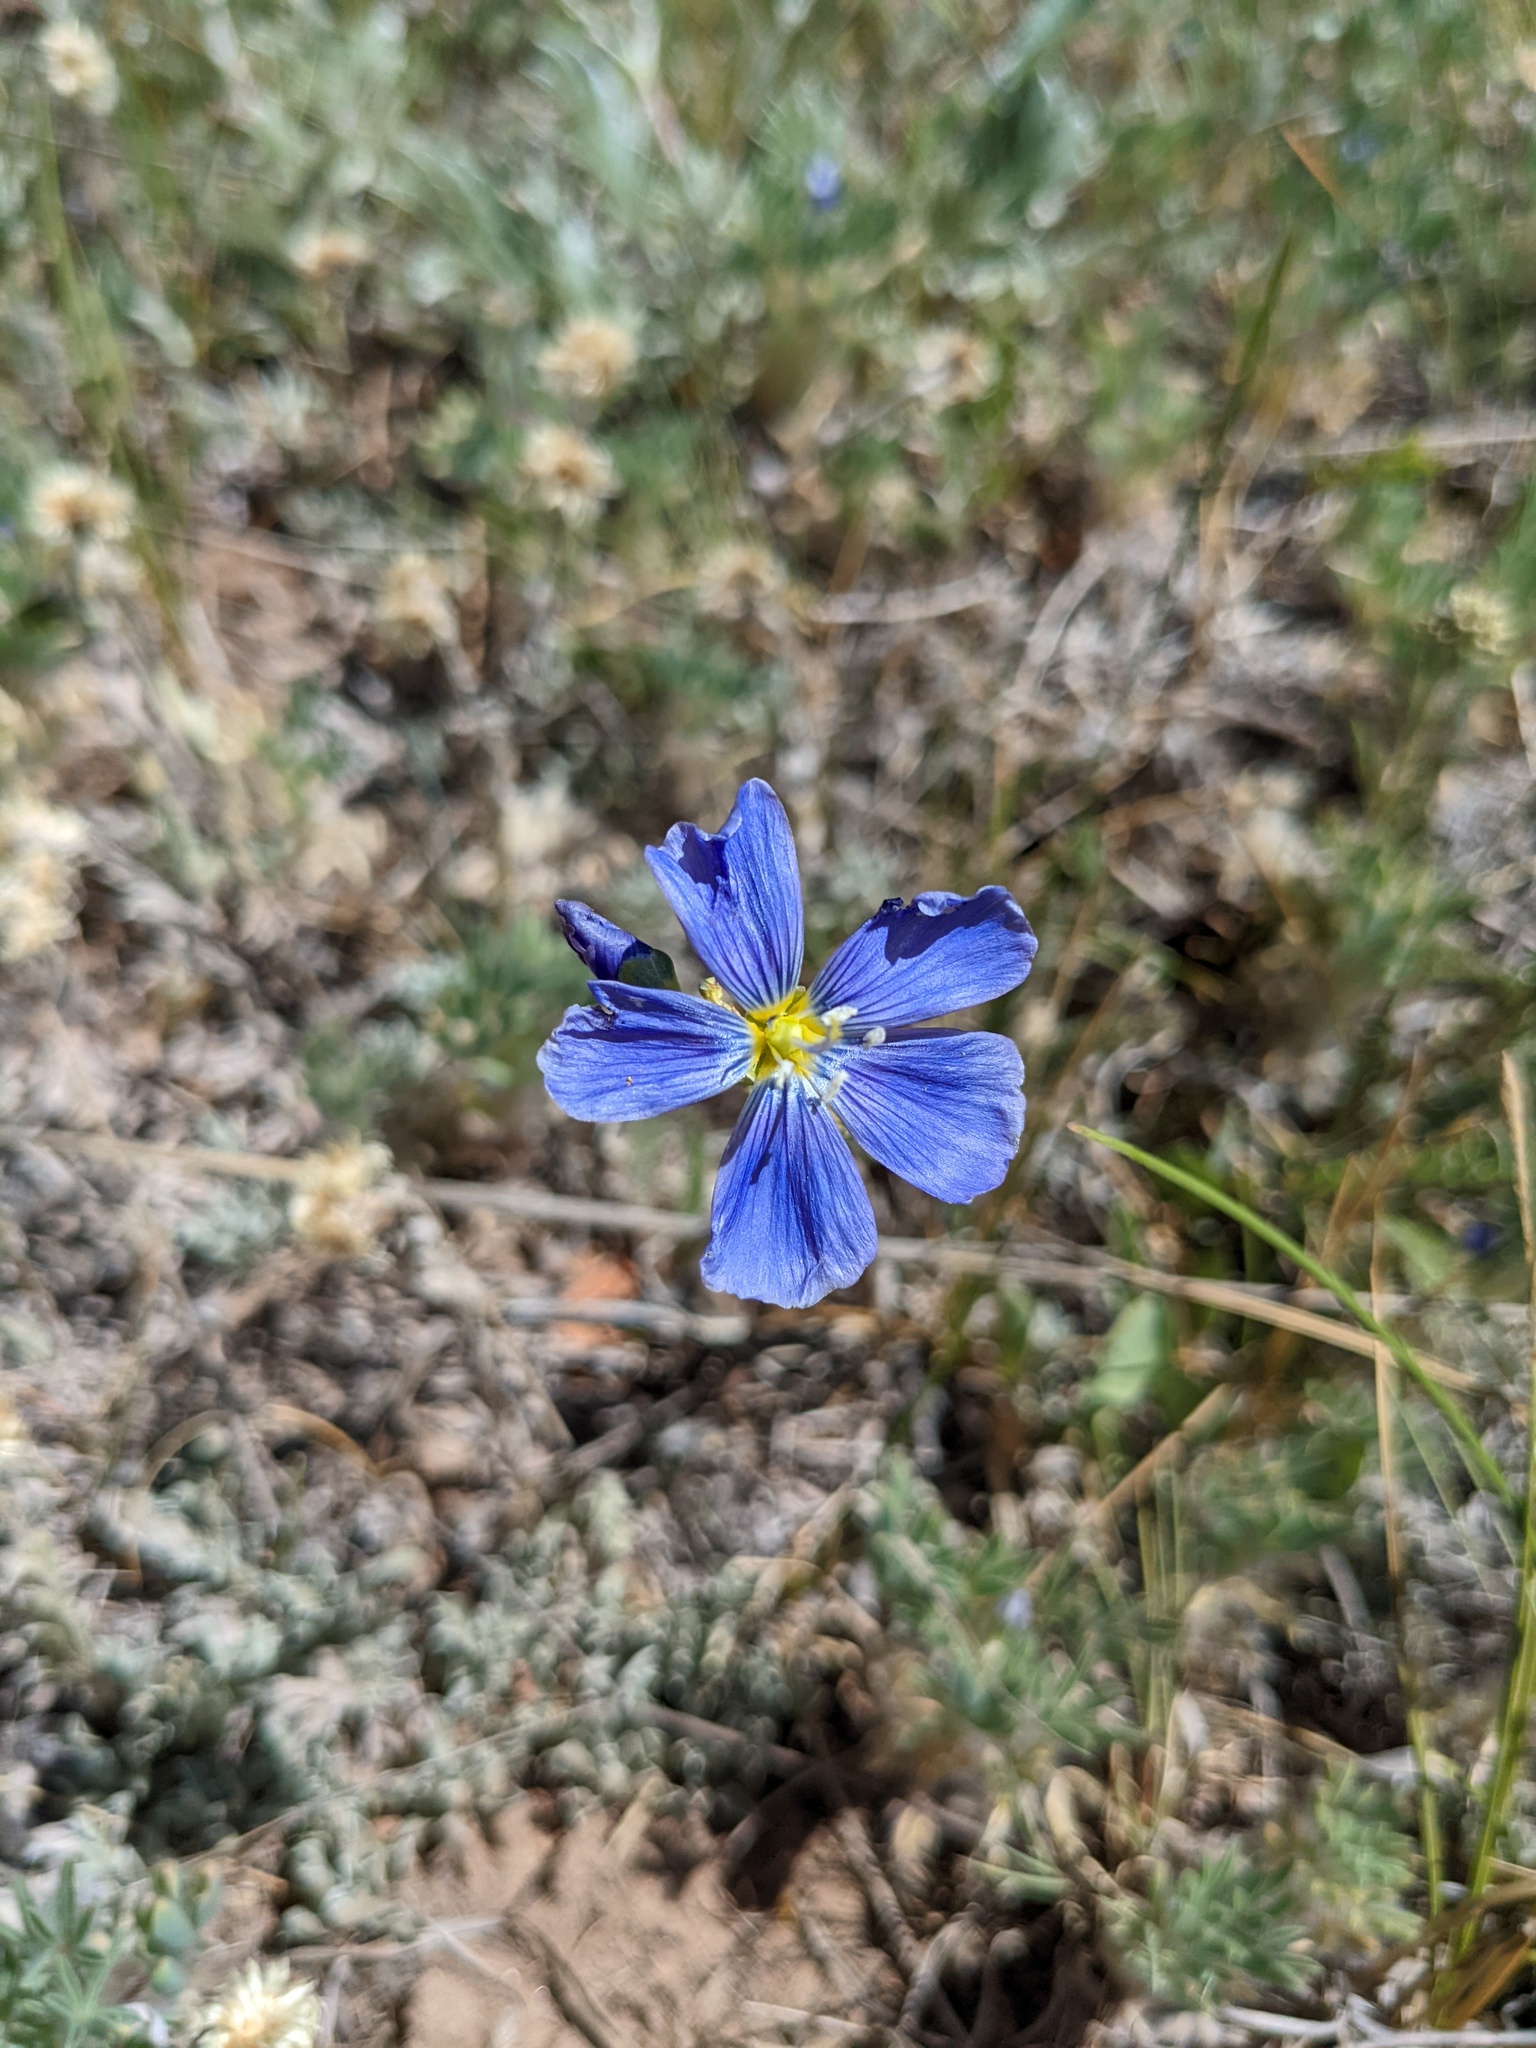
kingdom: Plantae
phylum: Tracheophyta
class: Magnoliopsida
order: Malpighiales
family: Linaceae
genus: Linum
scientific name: Linum lewisii
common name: Prairie flax
